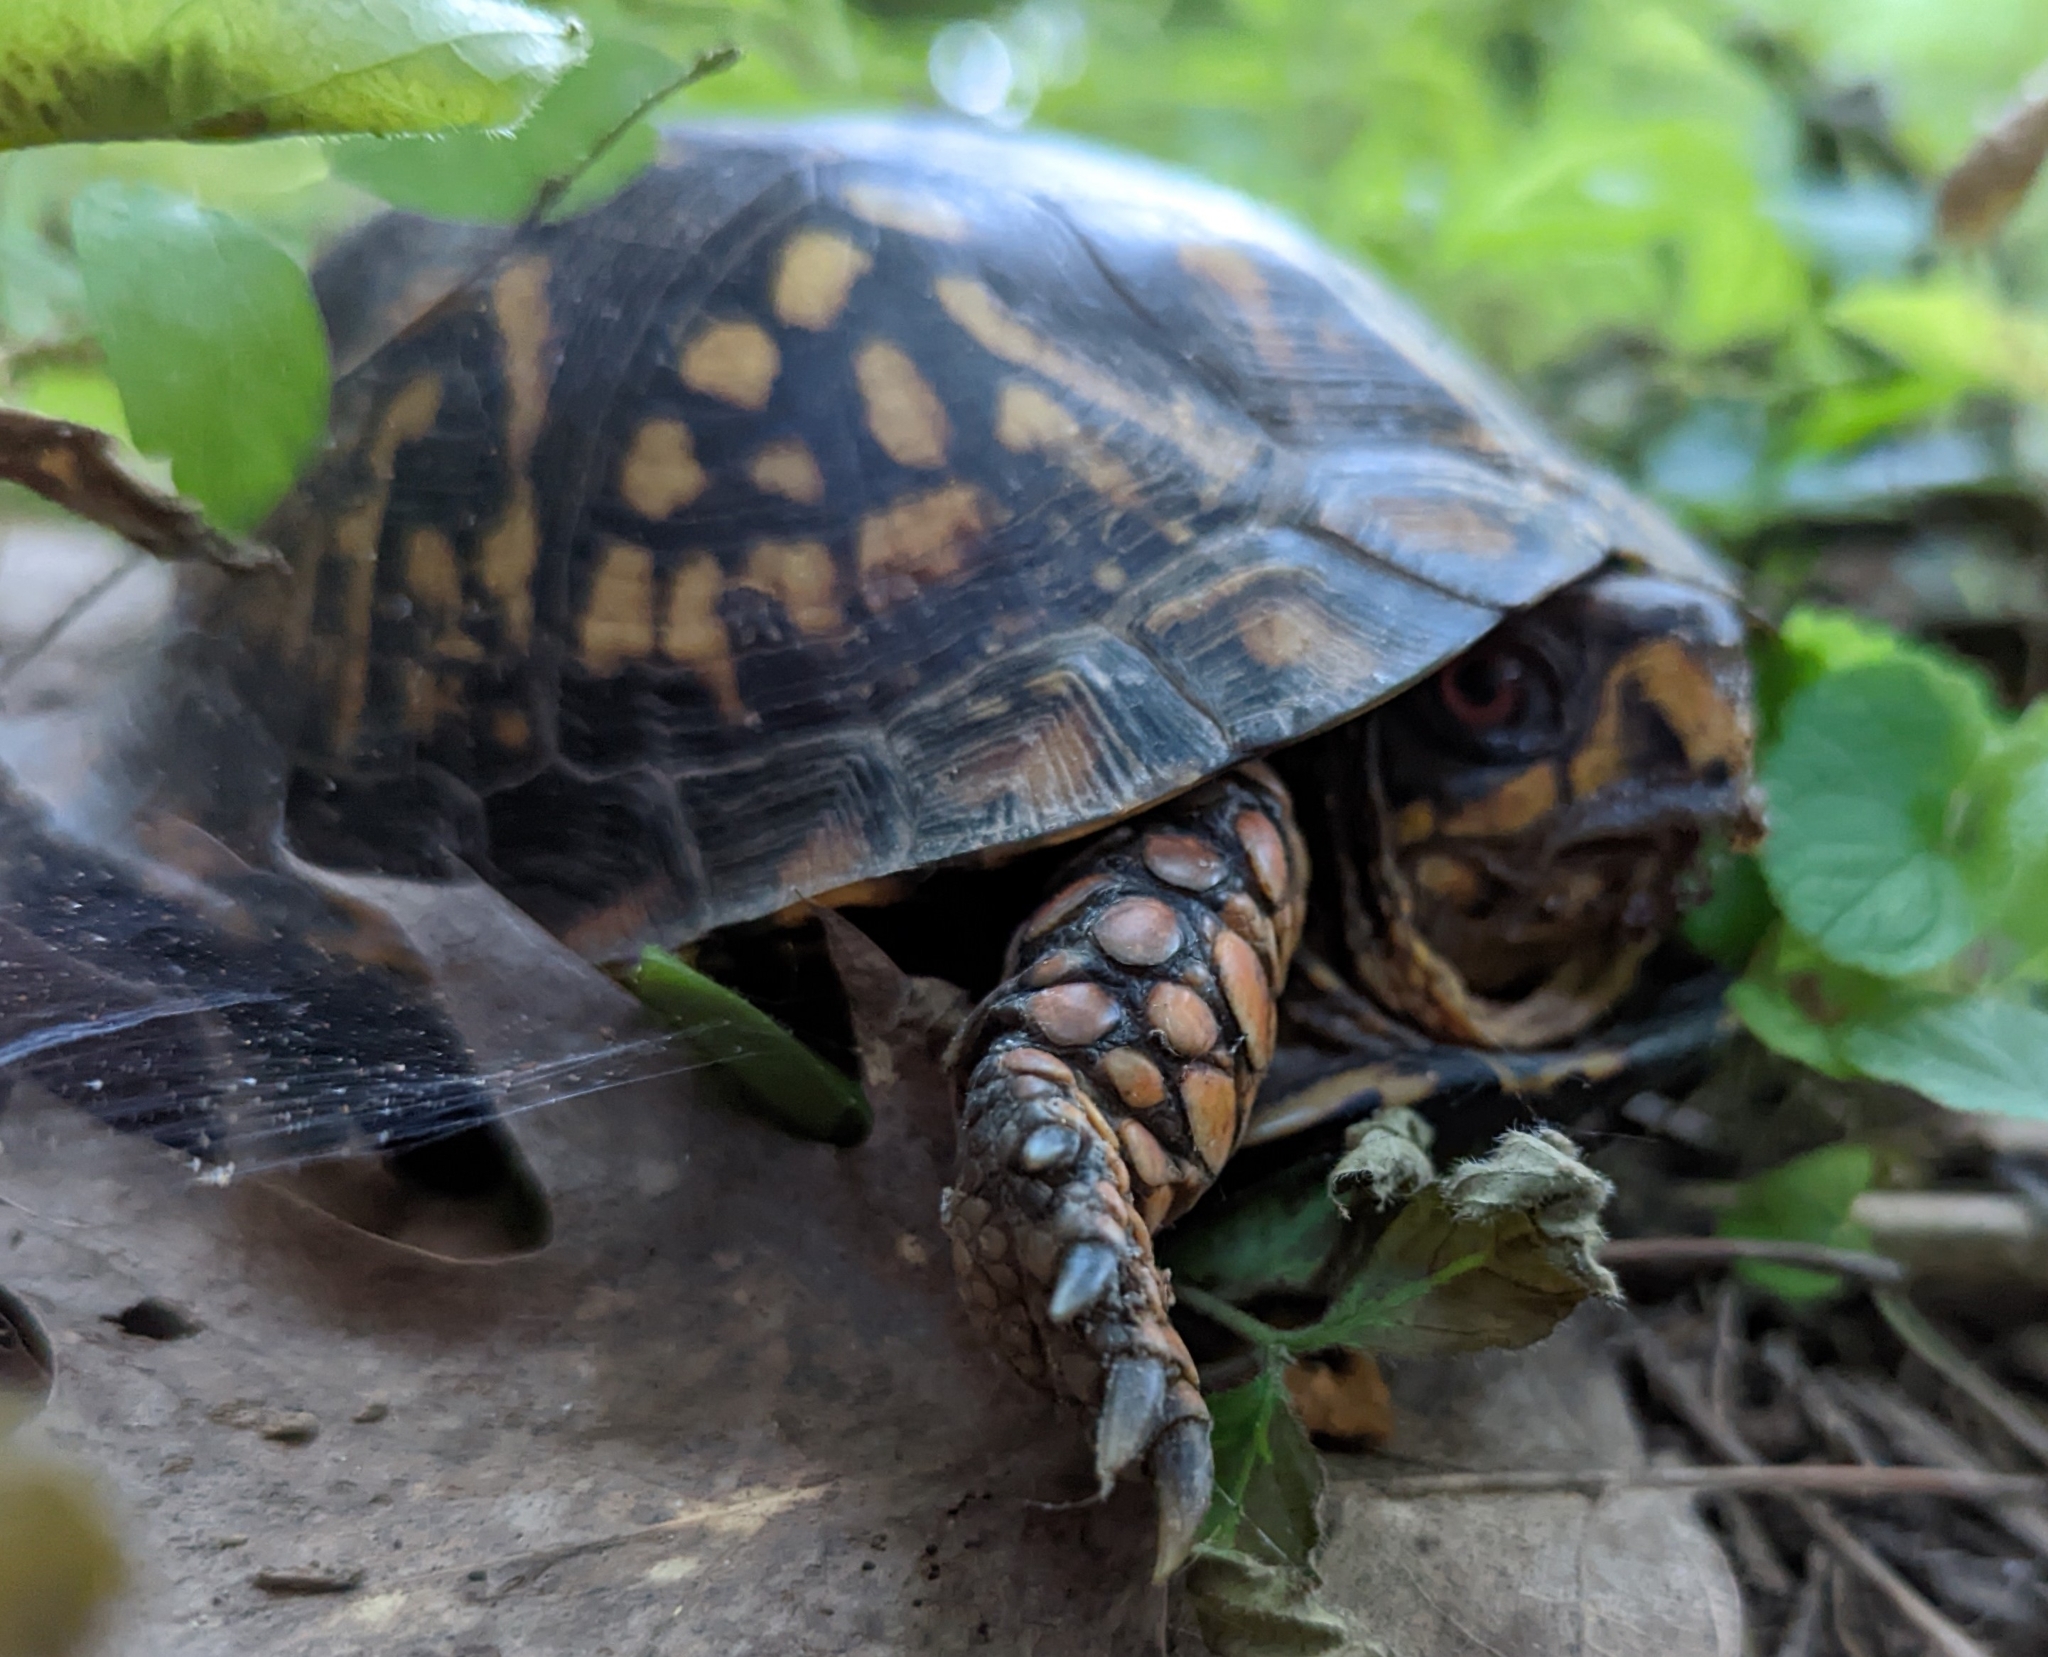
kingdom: Animalia
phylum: Chordata
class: Testudines
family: Emydidae
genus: Terrapene
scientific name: Terrapene carolina
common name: Common box turtle
